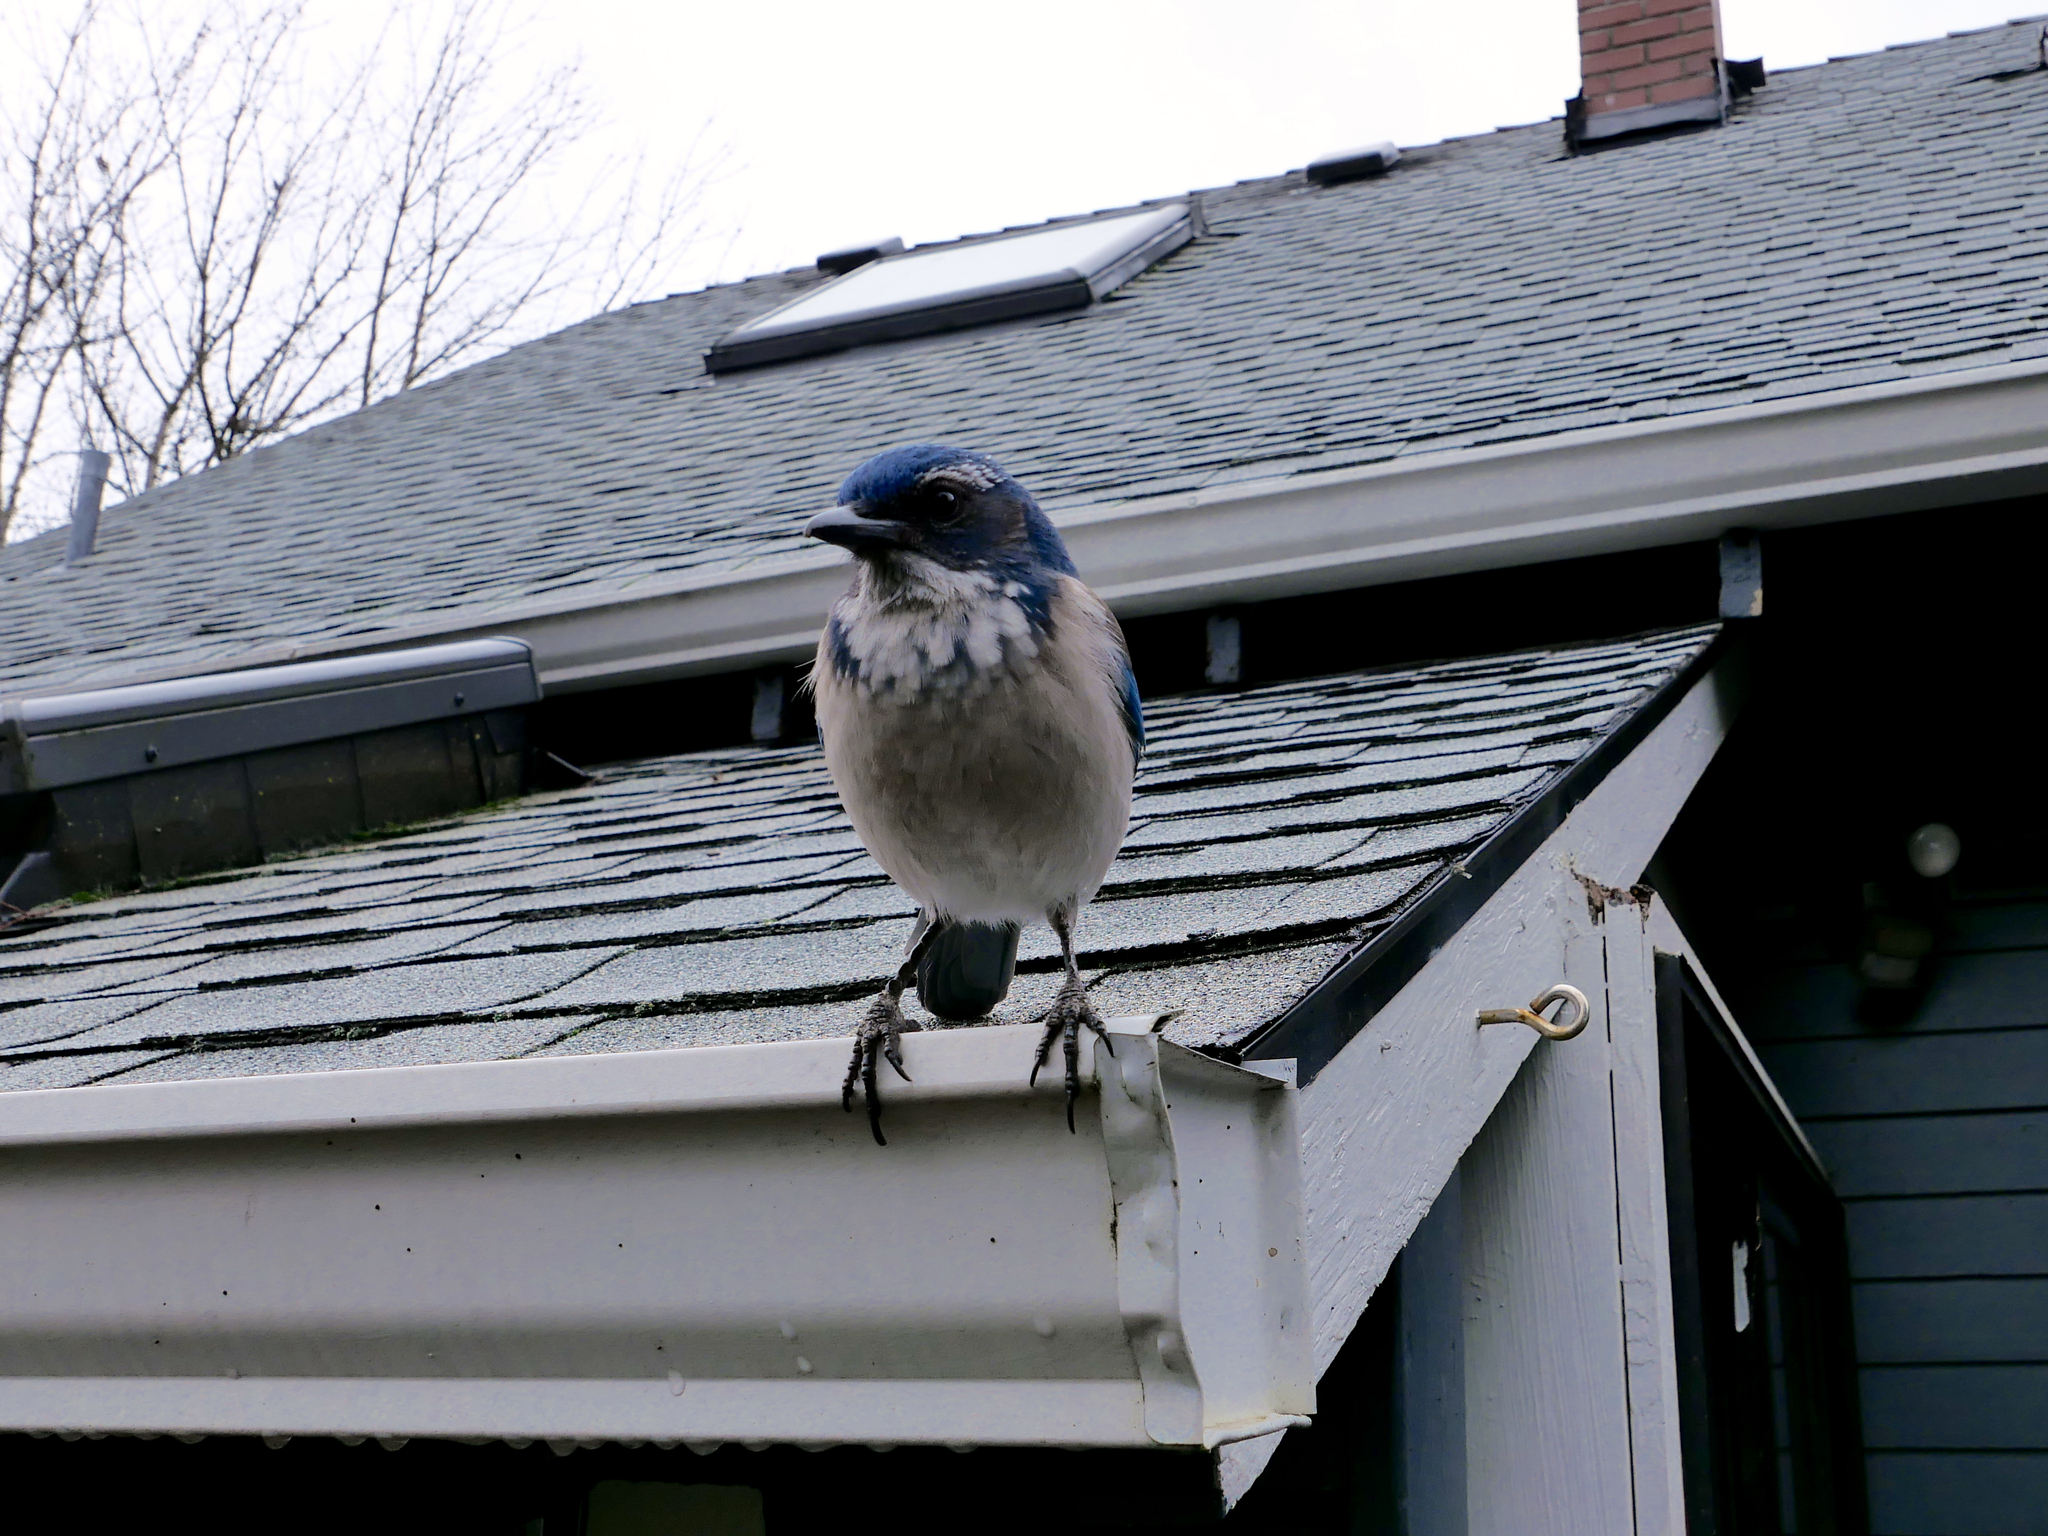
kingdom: Animalia
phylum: Chordata
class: Aves
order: Passeriformes
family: Corvidae
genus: Aphelocoma
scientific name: Aphelocoma californica
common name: California scrub-jay
